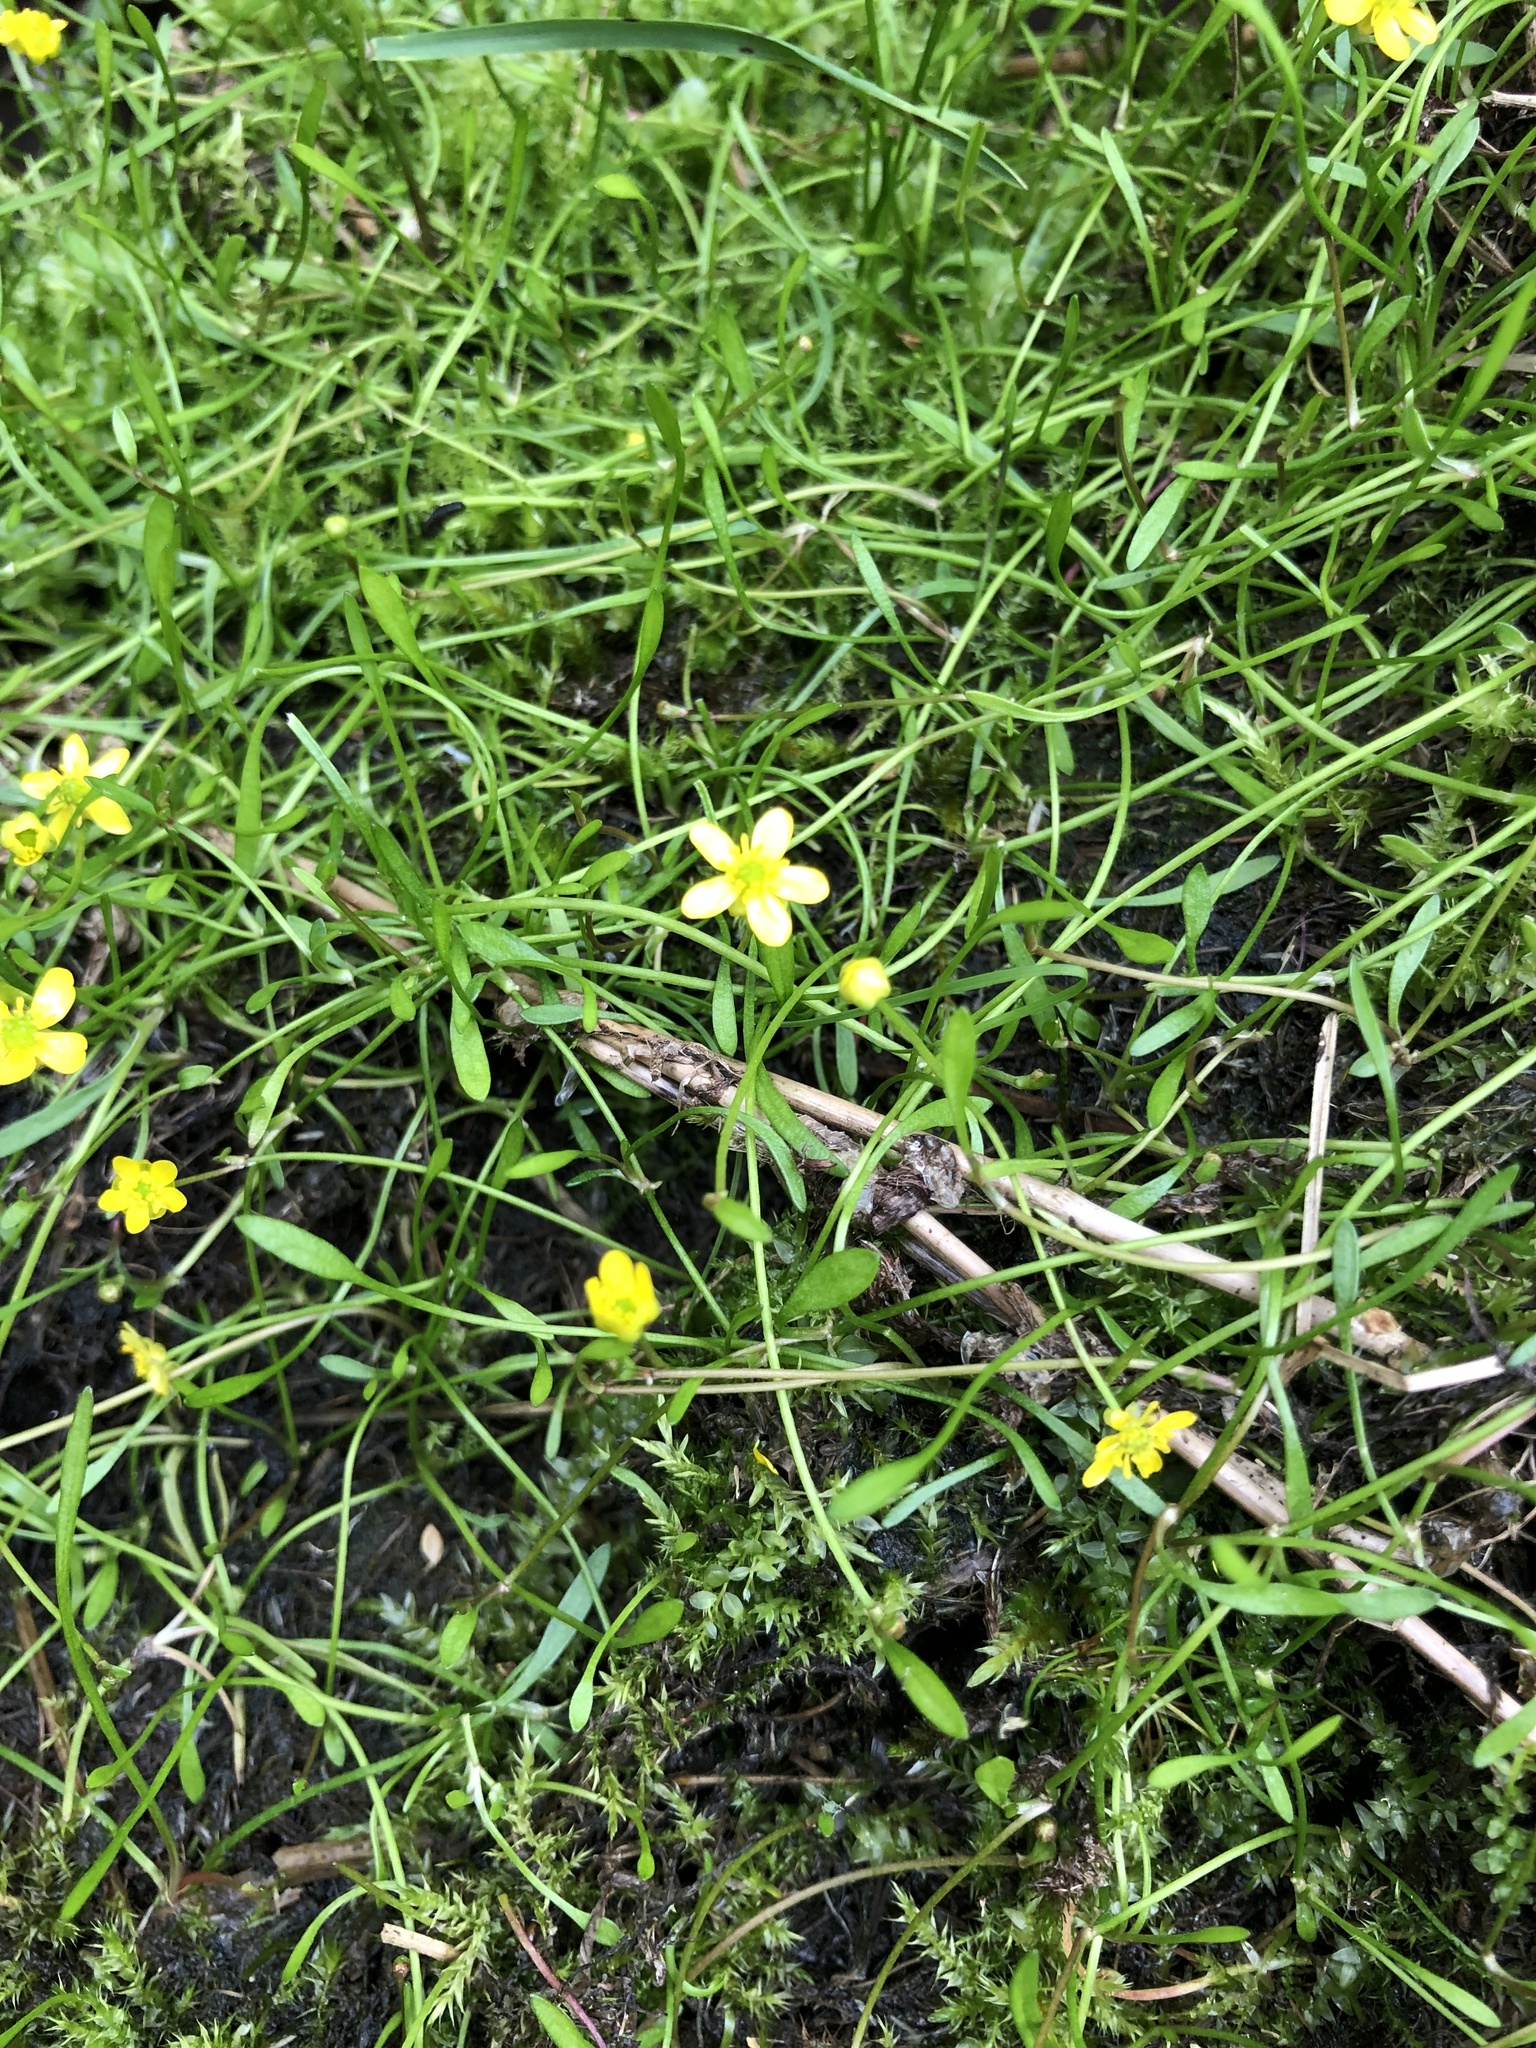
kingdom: Plantae
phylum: Tracheophyta
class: Magnoliopsida
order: Ranunculales
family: Ranunculaceae
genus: Ranunculus
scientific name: Ranunculus reptans
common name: Creeping spearwort
